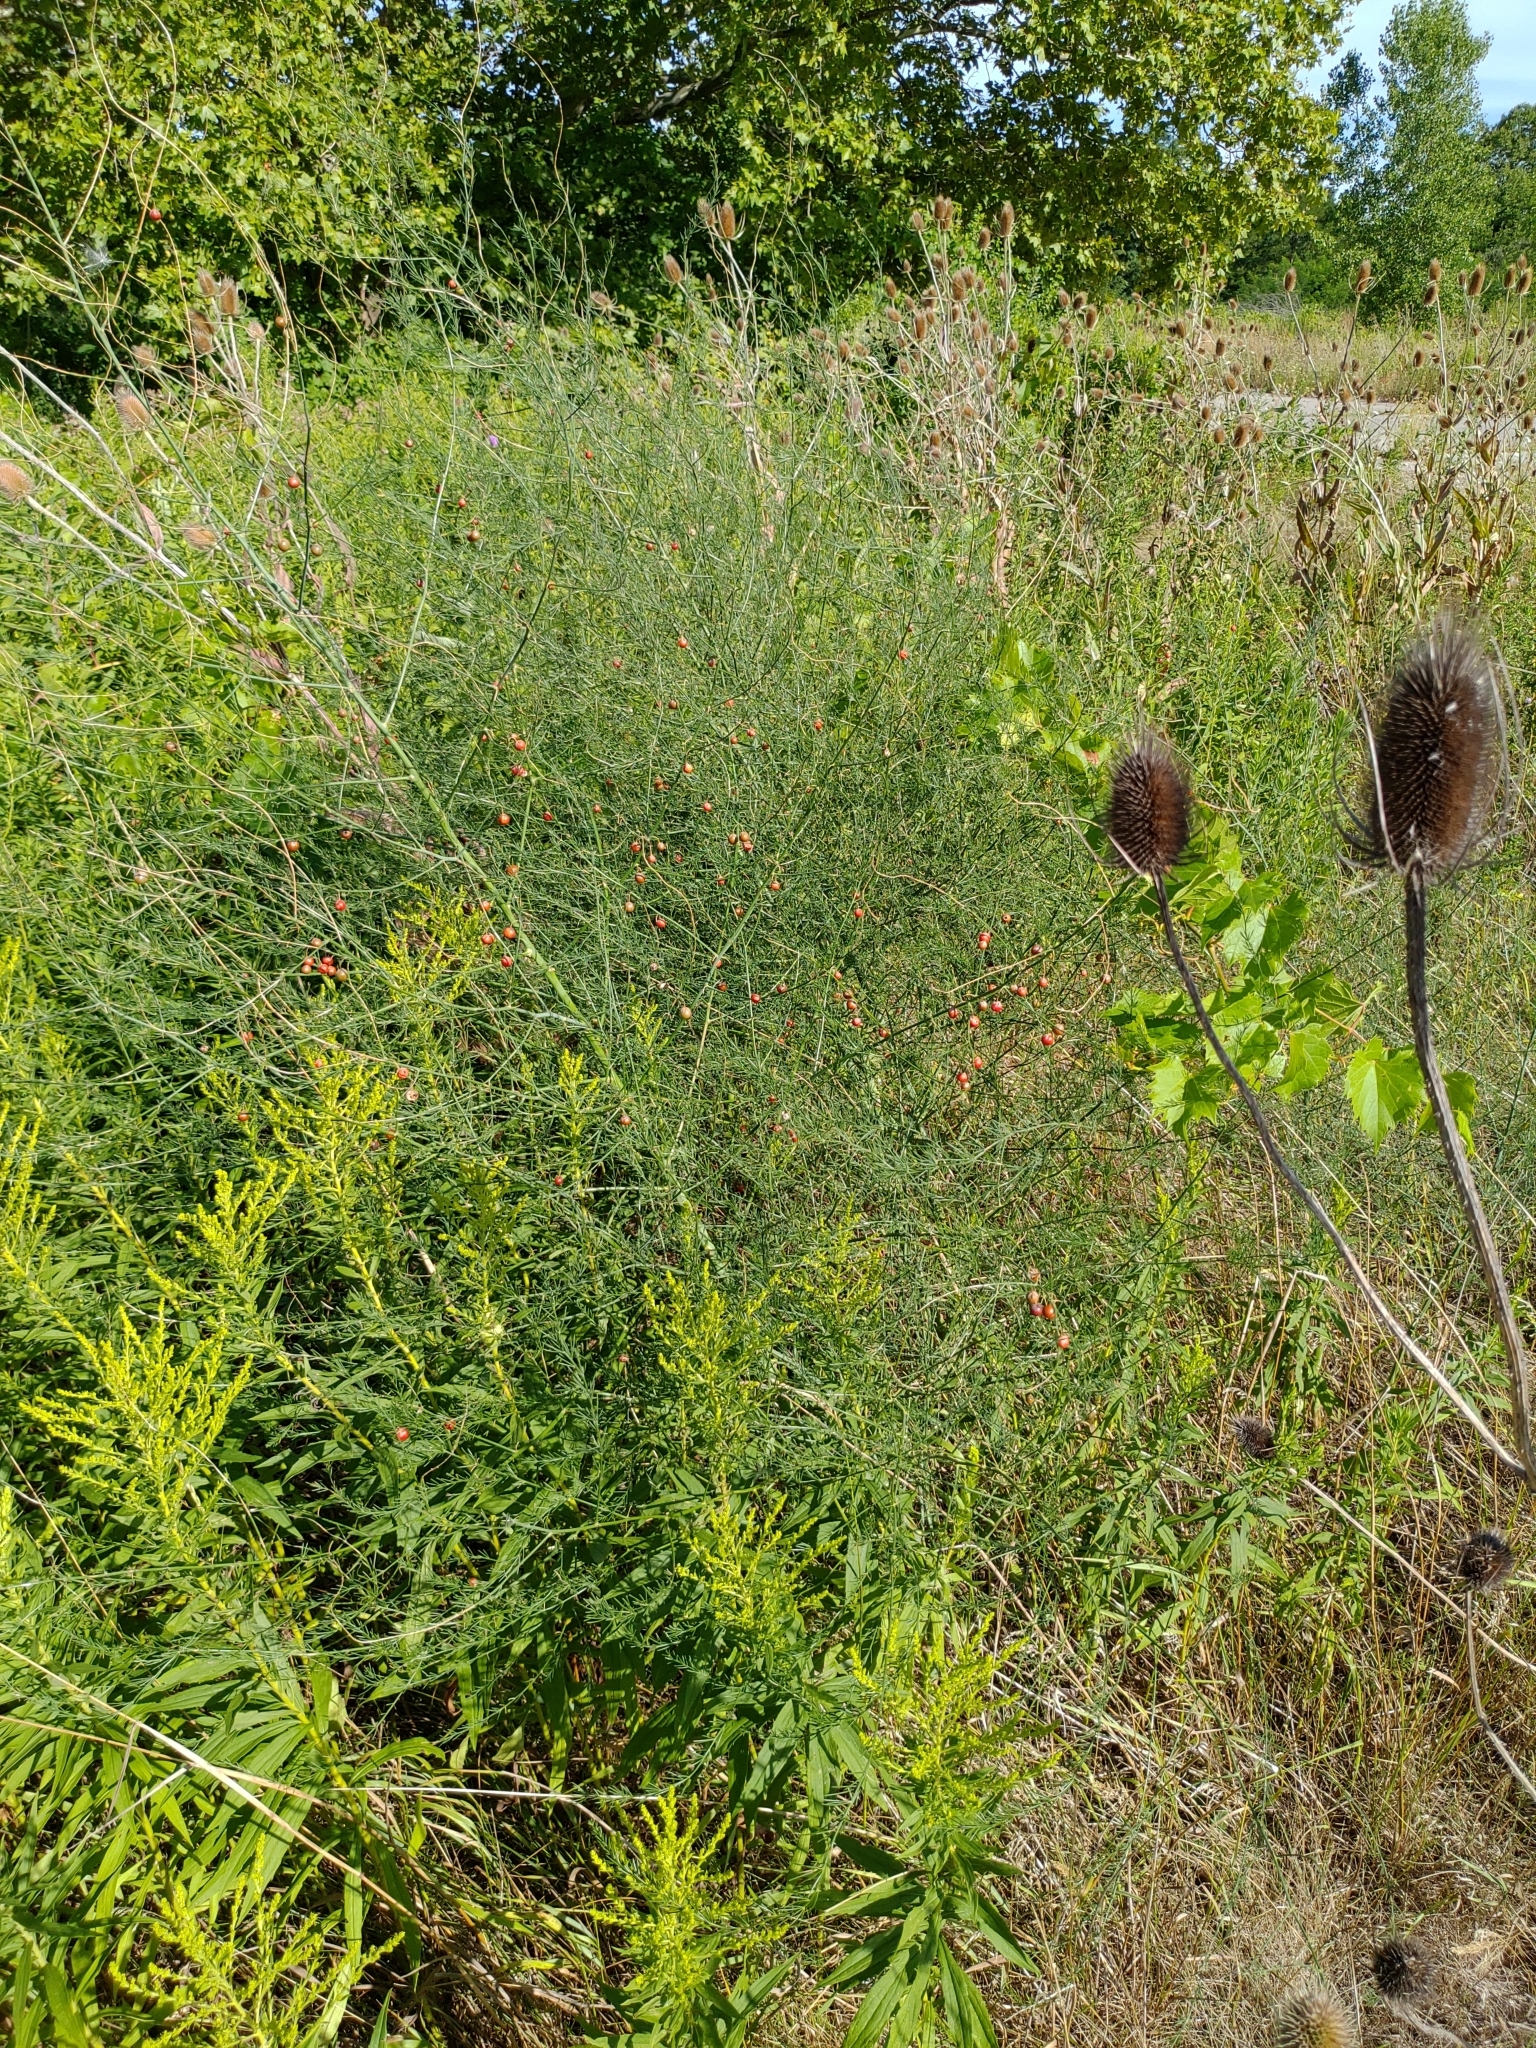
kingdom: Plantae
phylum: Tracheophyta
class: Liliopsida
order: Asparagales
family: Asparagaceae
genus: Asparagus
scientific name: Asparagus officinalis
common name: Garden asparagus
